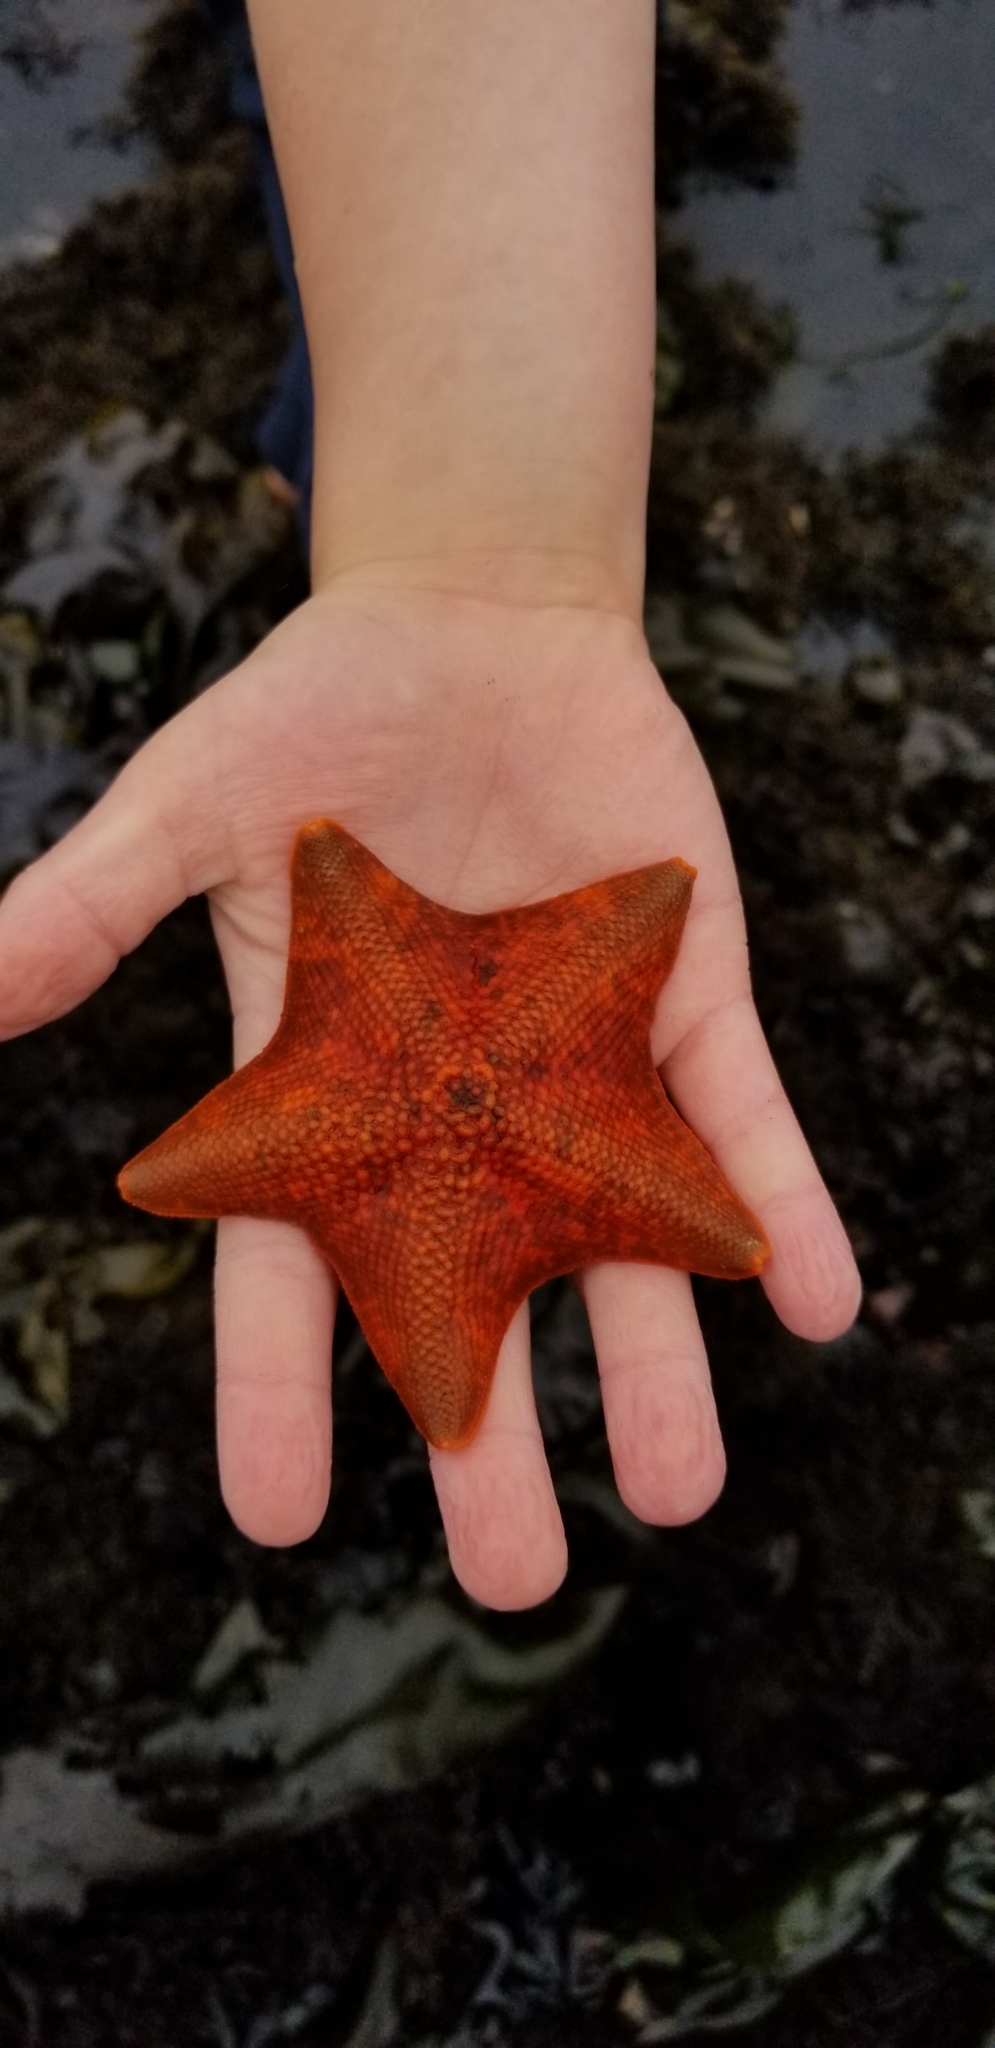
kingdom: Animalia
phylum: Echinodermata
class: Asteroidea
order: Valvatida
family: Asterinidae
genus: Patiria
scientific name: Patiria miniata
